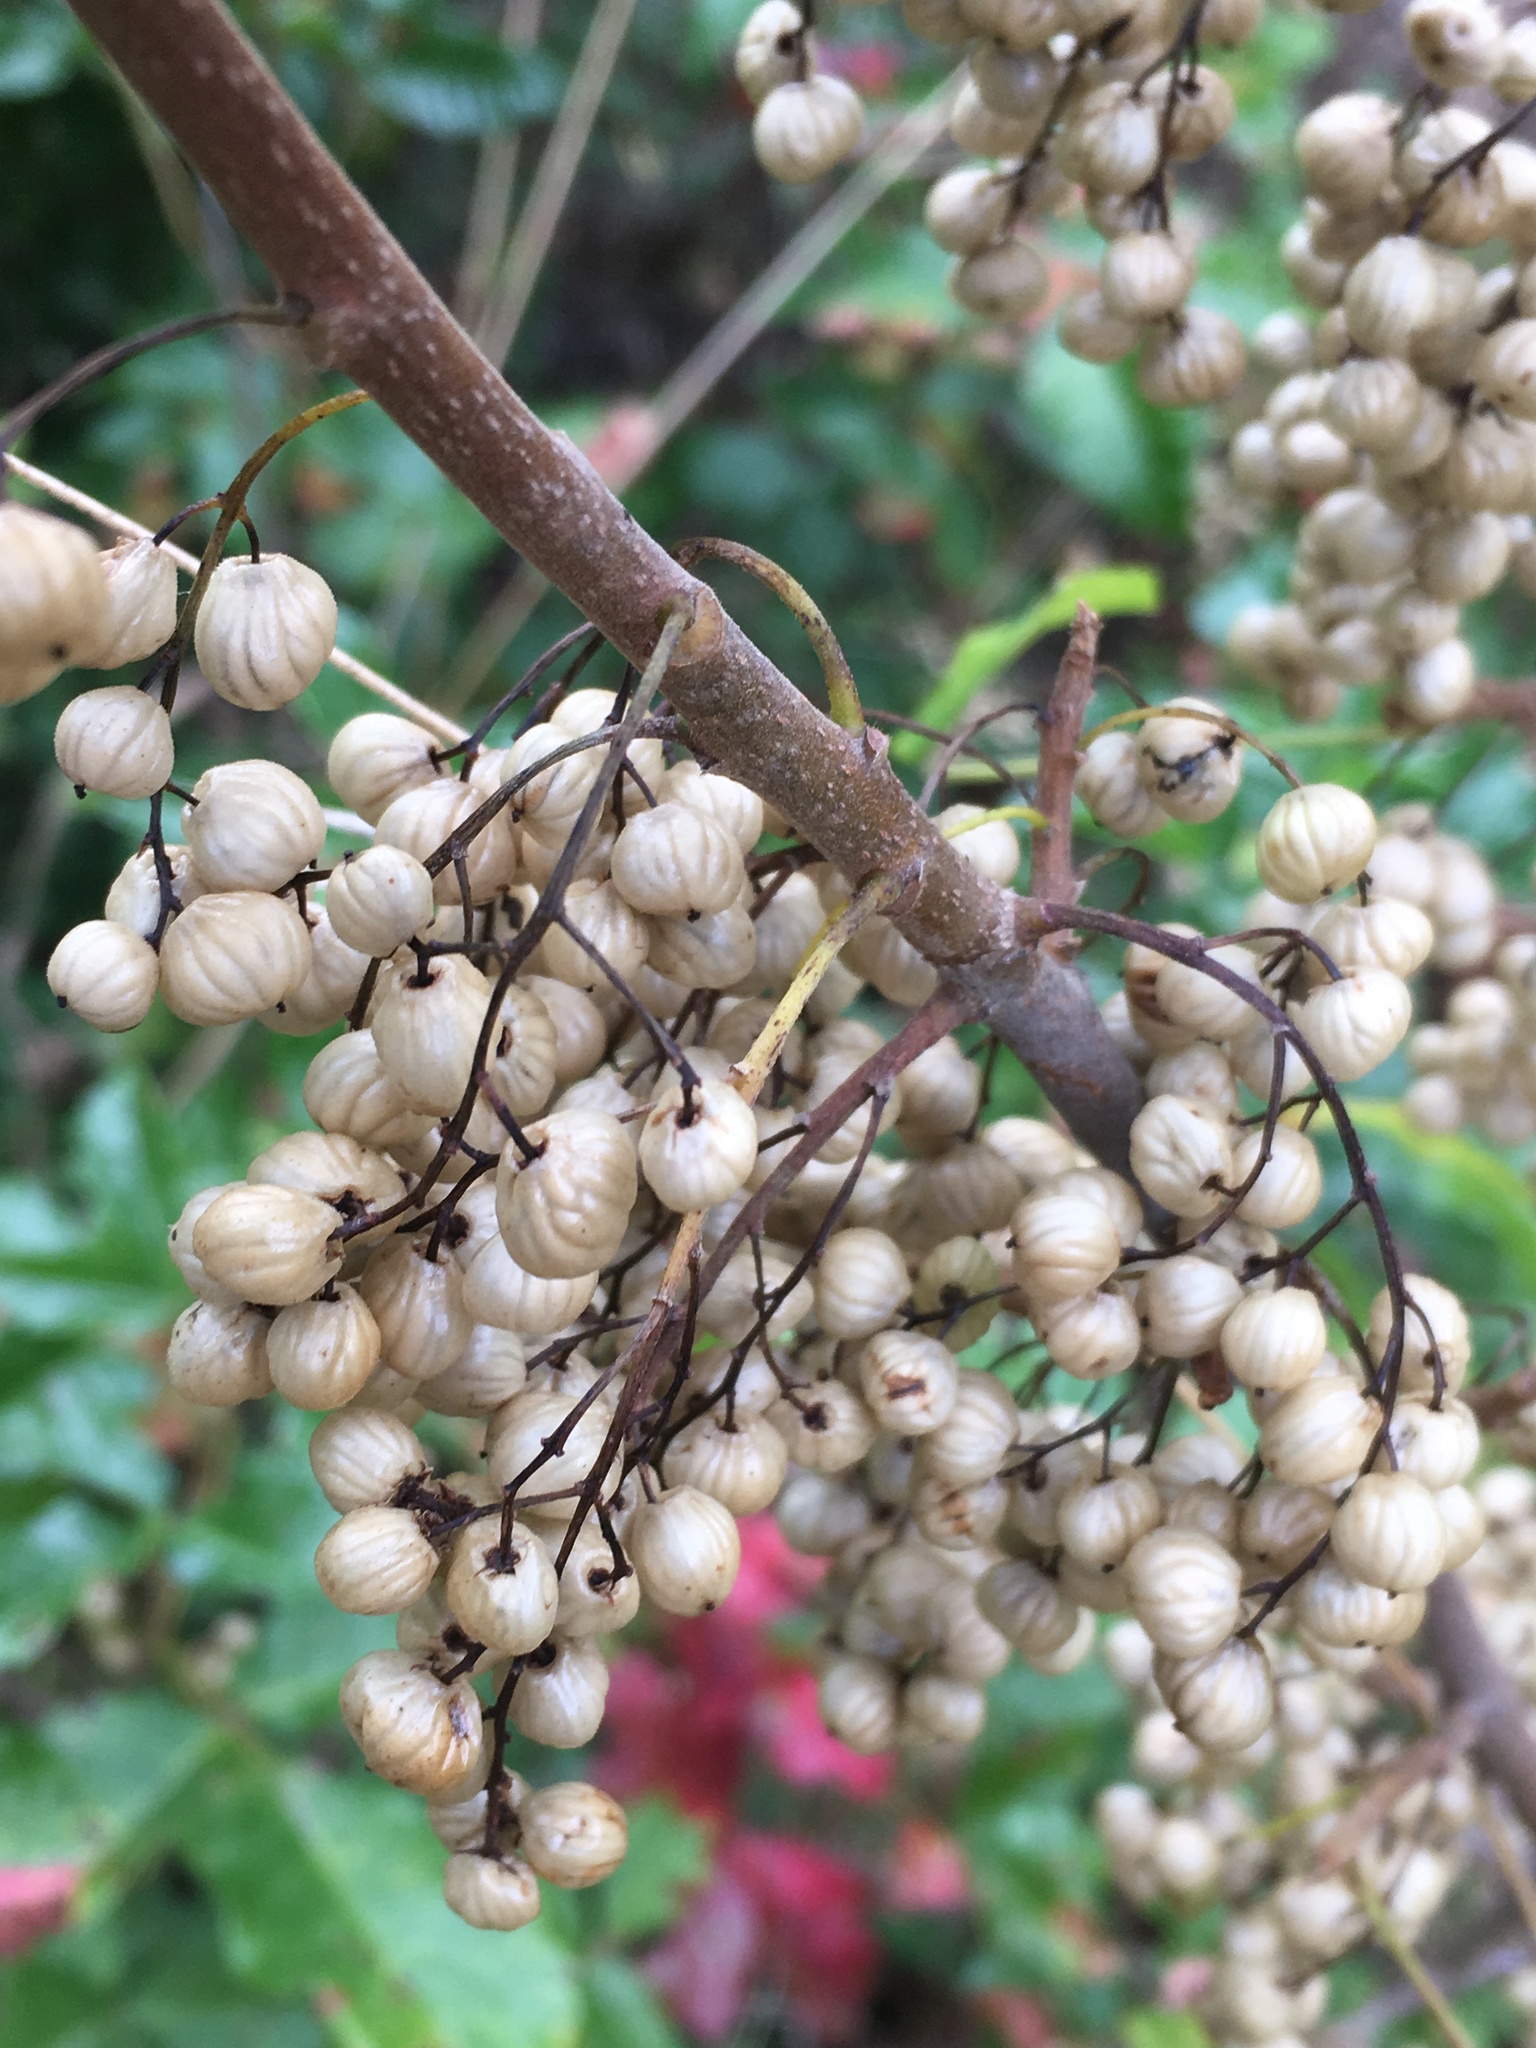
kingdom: Plantae
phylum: Tracheophyta
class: Magnoliopsida
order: Sapindales
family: Anacardiaceae
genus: Toxicodendron
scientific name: Toxicodendron diversilobum
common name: Pacific poison-oak
